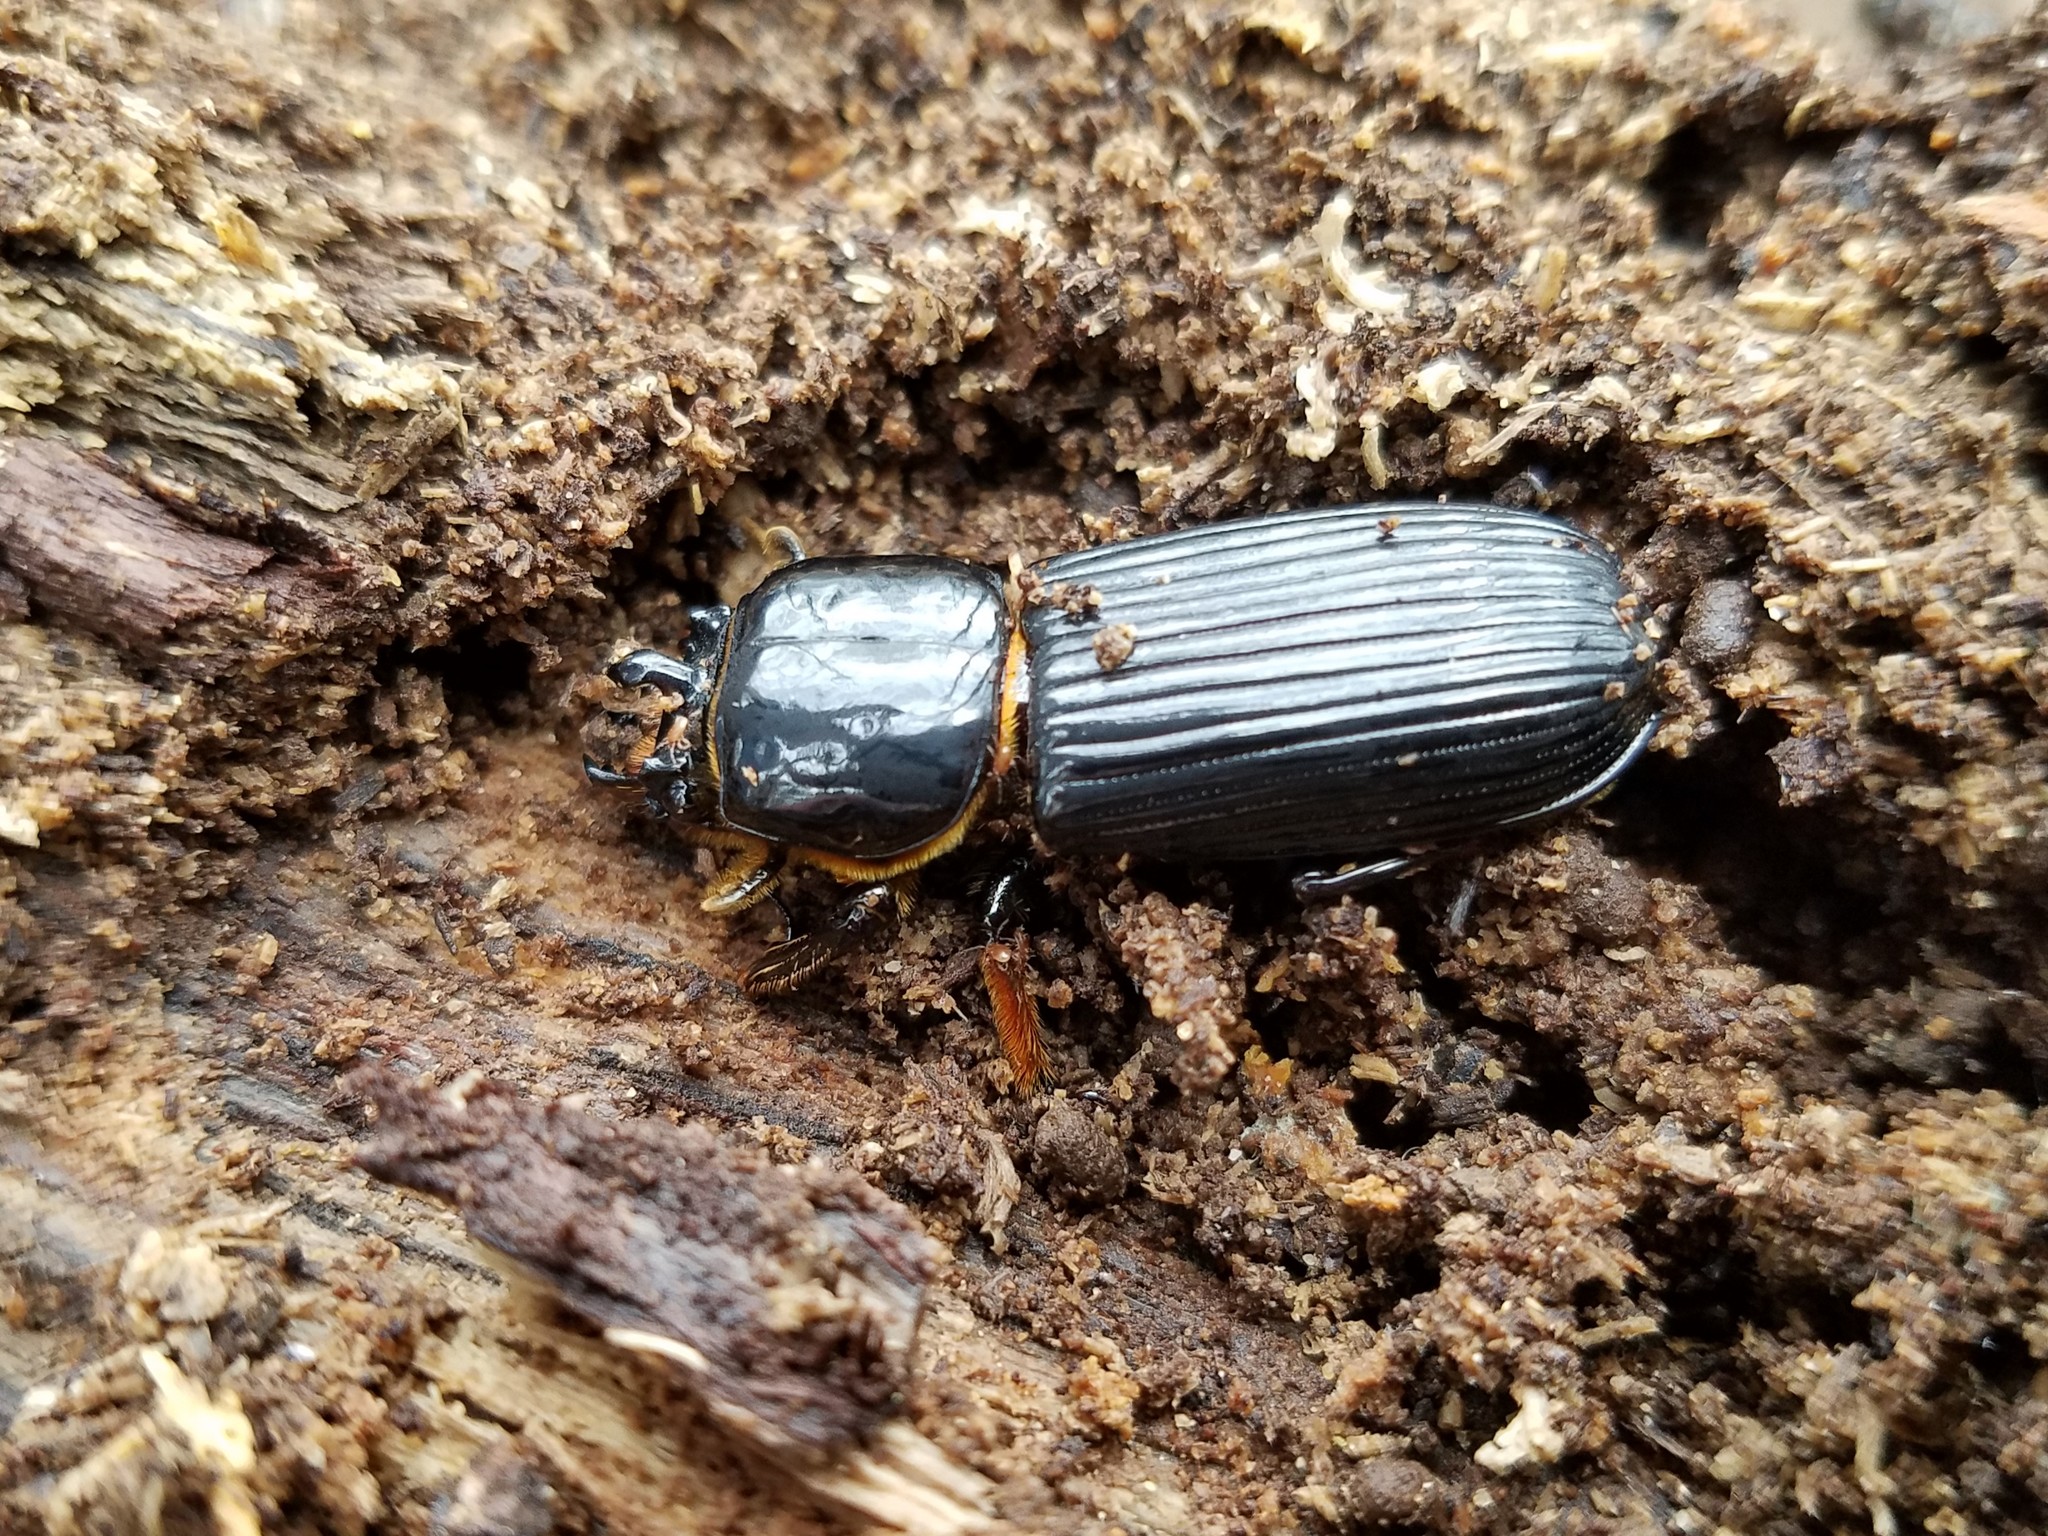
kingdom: Animalia
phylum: Arthropoda
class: Insecta
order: Coleoptera
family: Passalidae
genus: Odontotaenius
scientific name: Odontotaenius disjunctus
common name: Patent leather beetle
